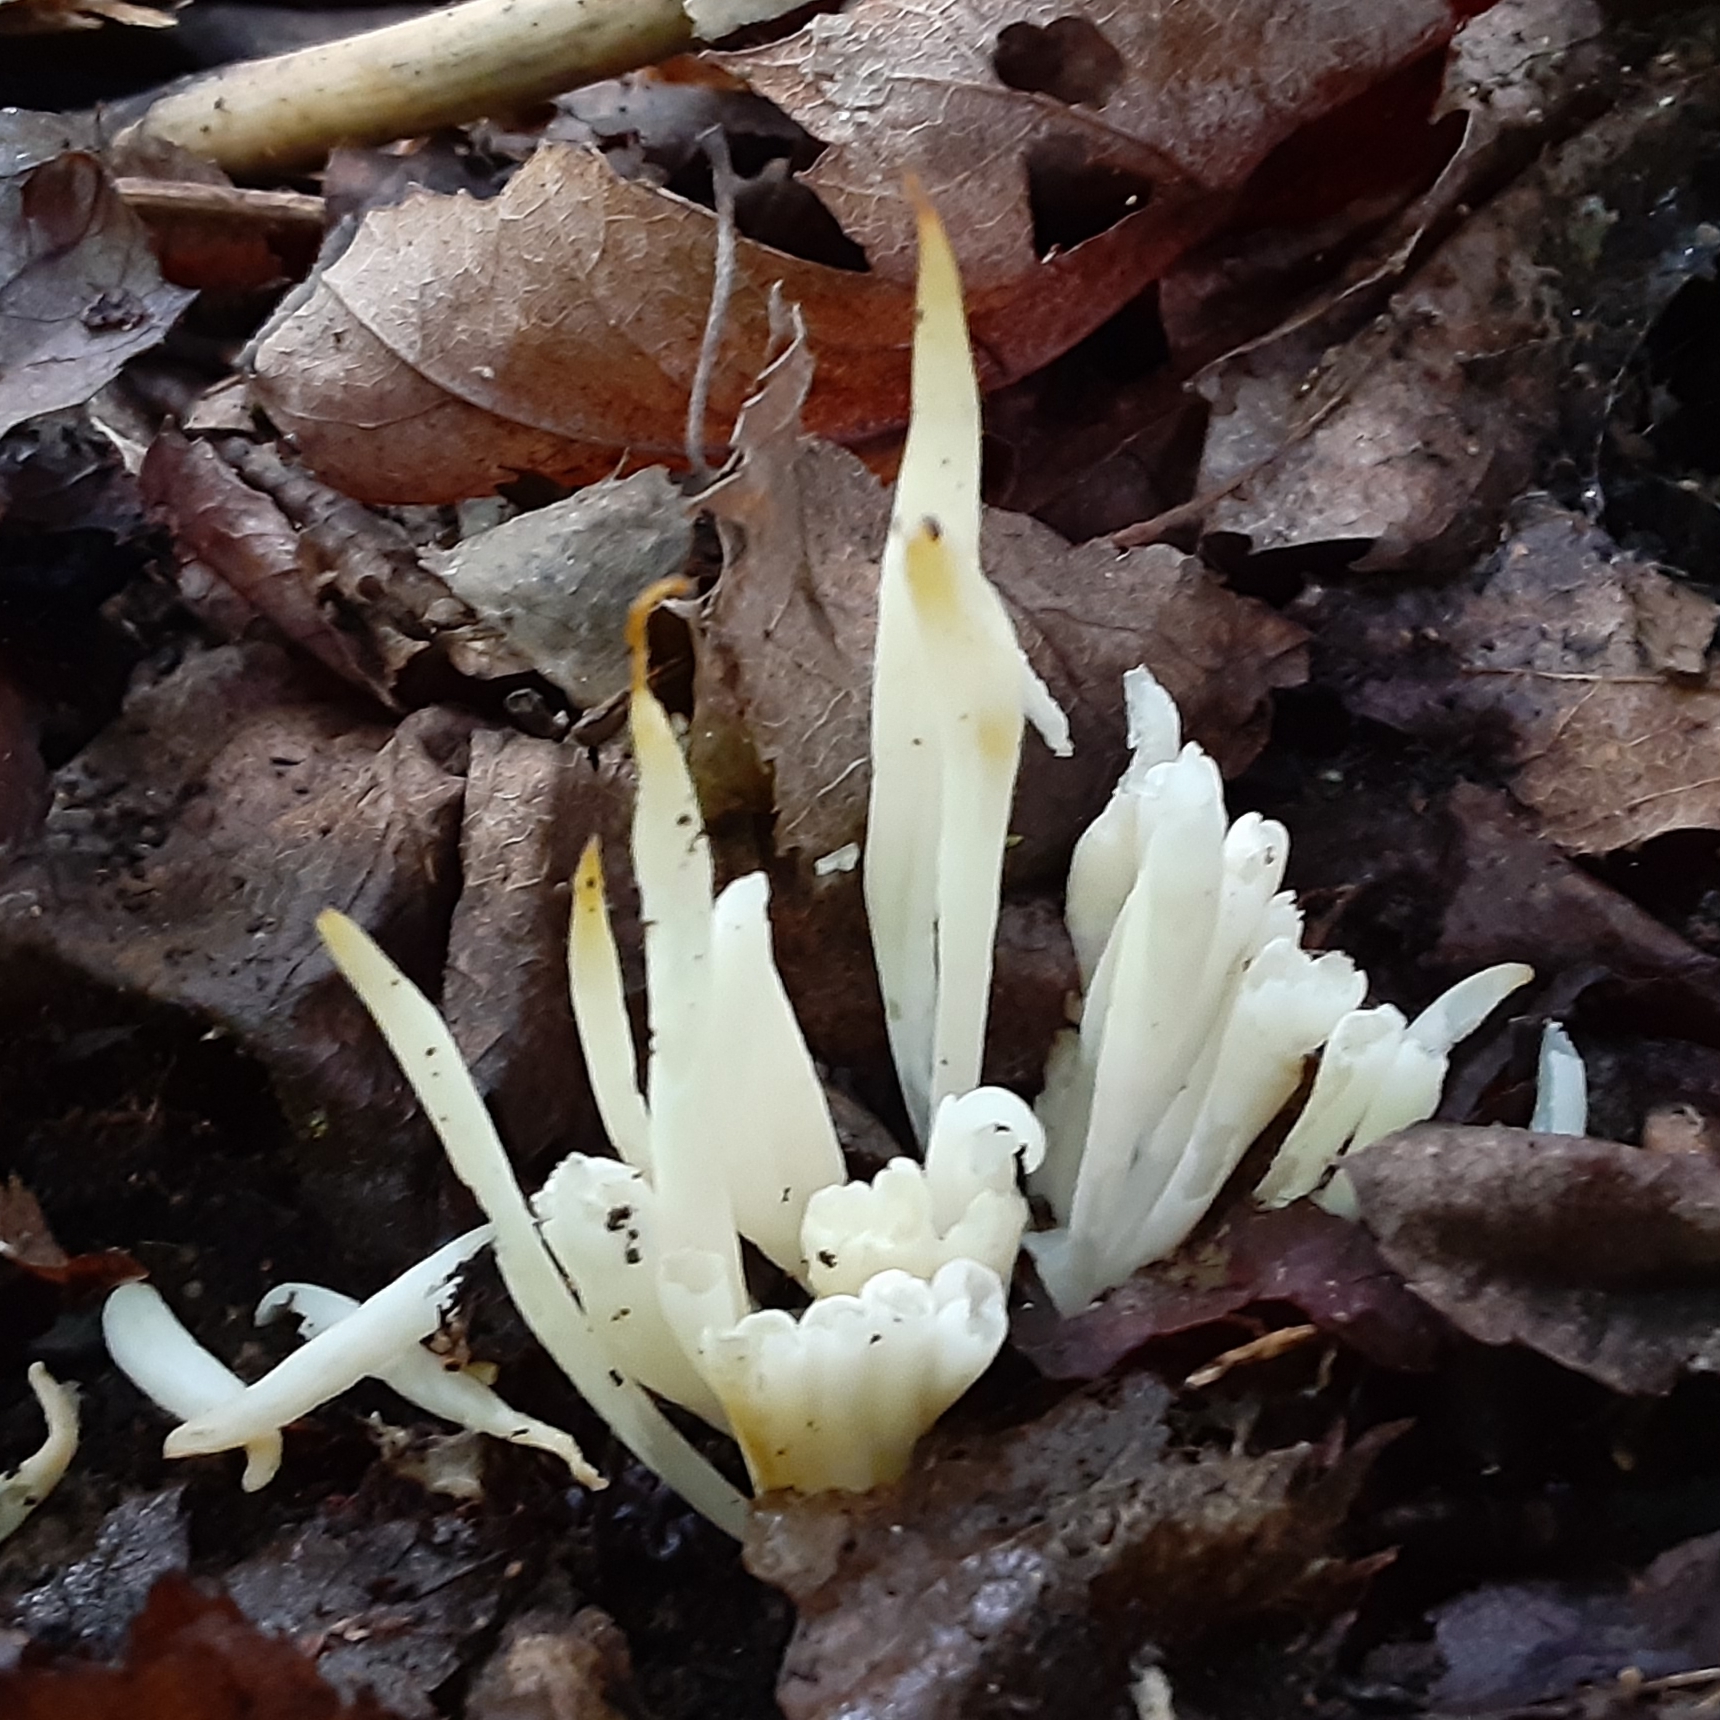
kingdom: Fungi
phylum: Basidiomycota
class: Agaricomycetes
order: Agaricales
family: Clavariaceae
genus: Clavaria
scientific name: Clavaria fragilis
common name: White spindles
